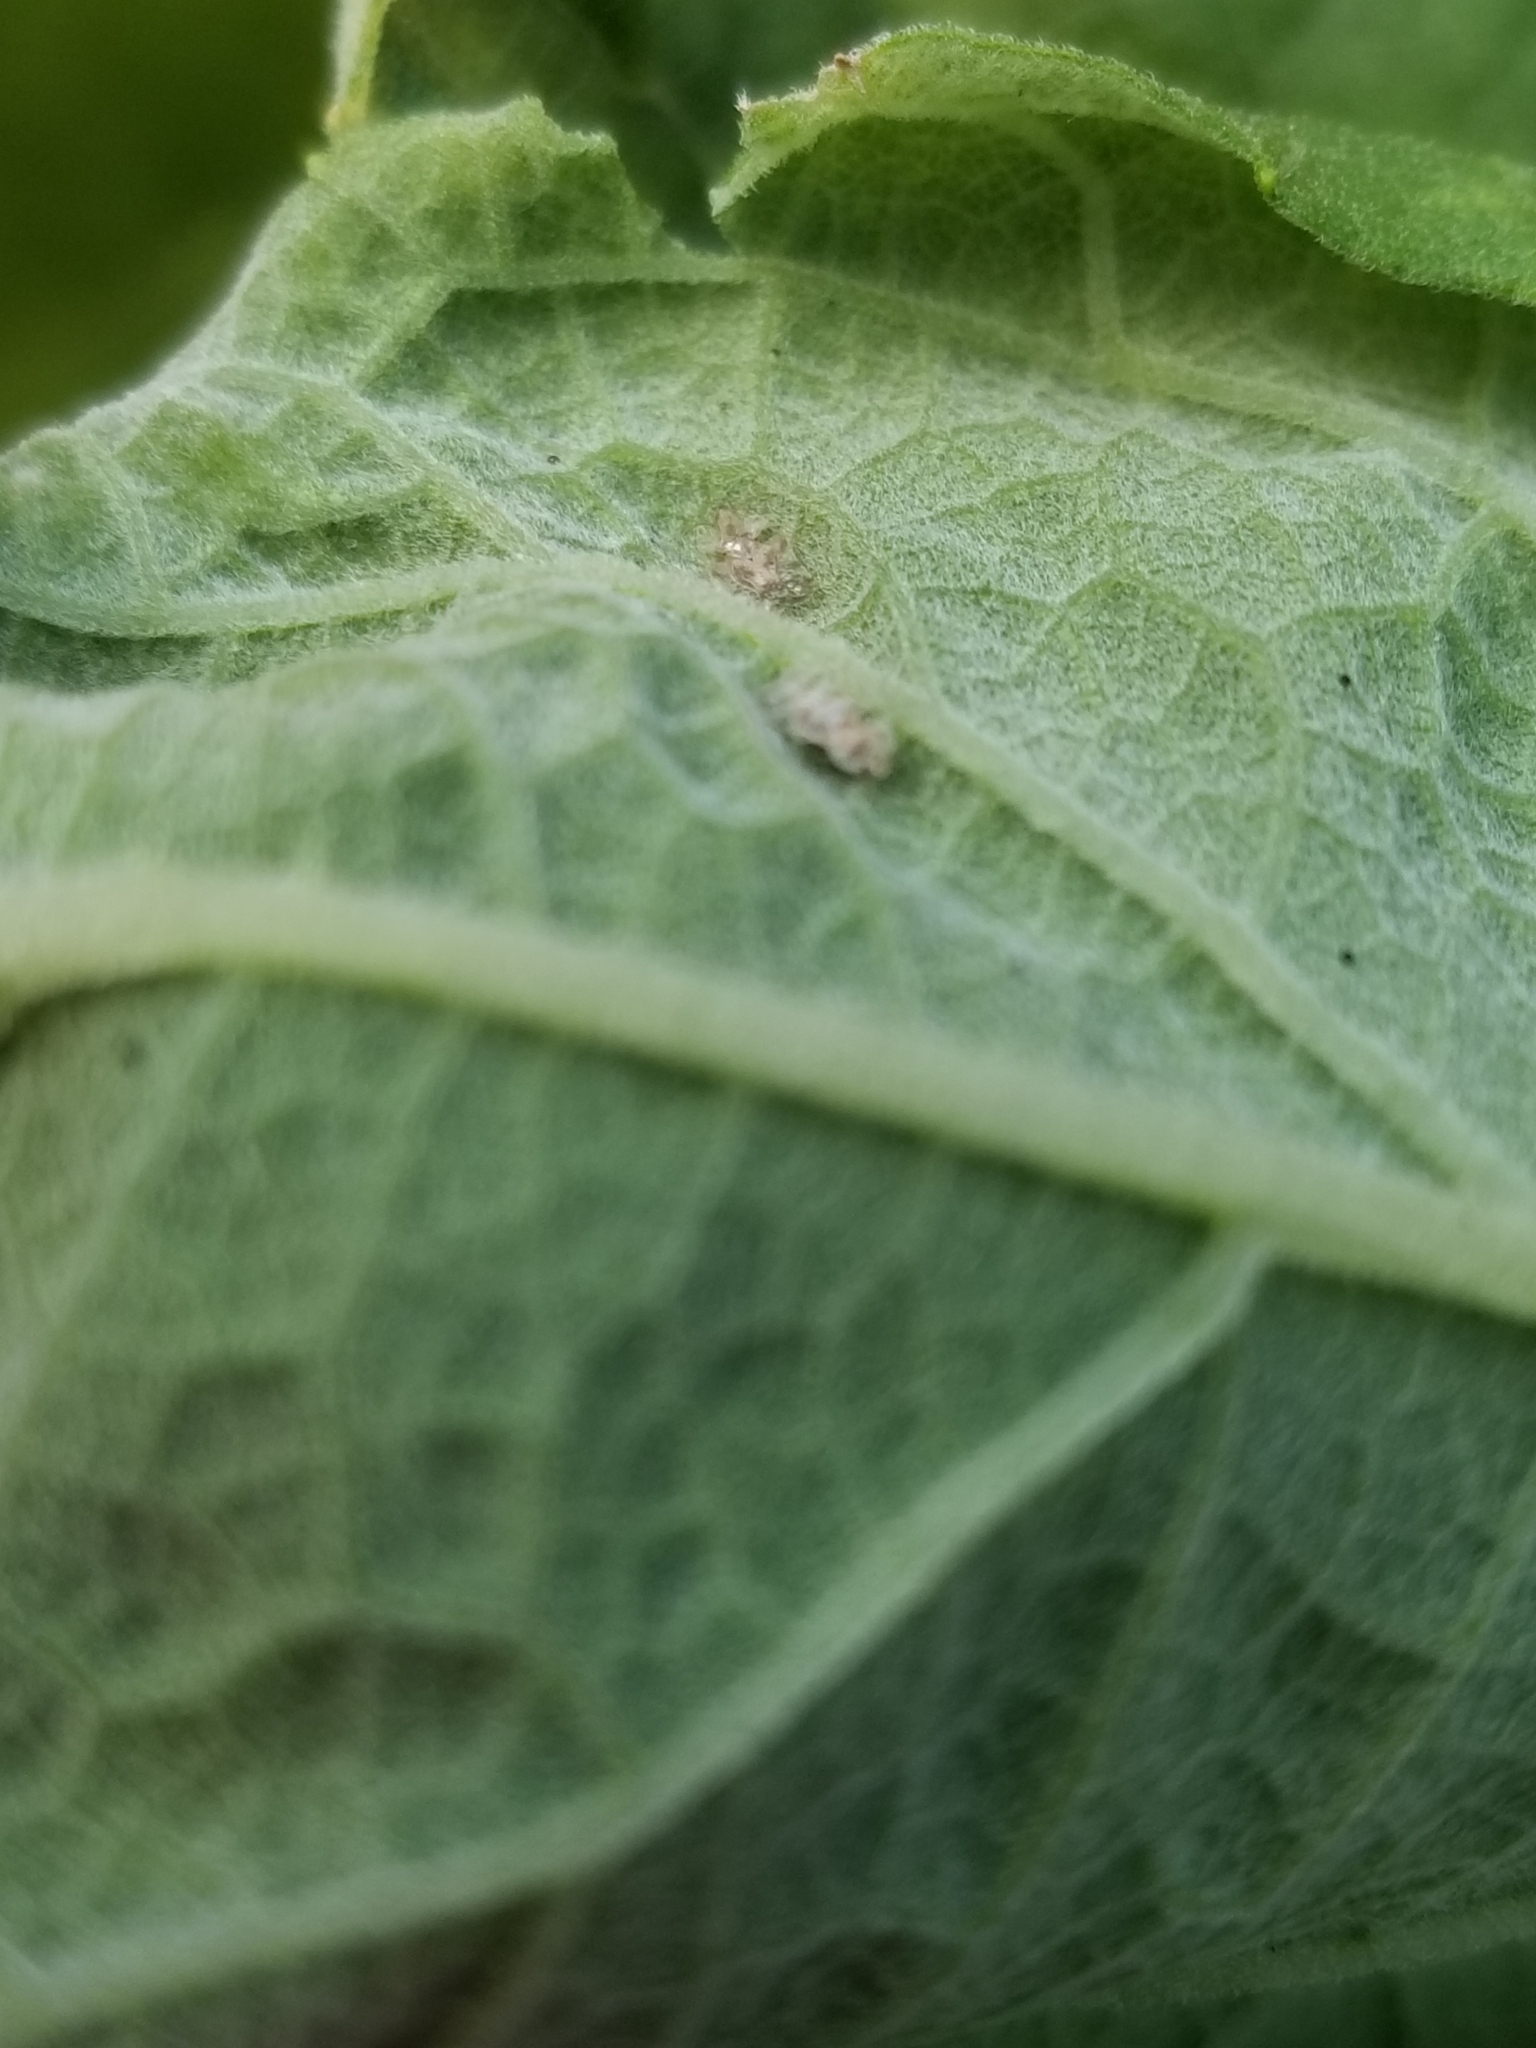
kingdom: Animalia
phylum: Arthropoda
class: Insecta
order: Hemiptera
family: Tingidae
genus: Corythucha
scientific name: Corythucha marmorata
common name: Chrysanthemum lace bug
